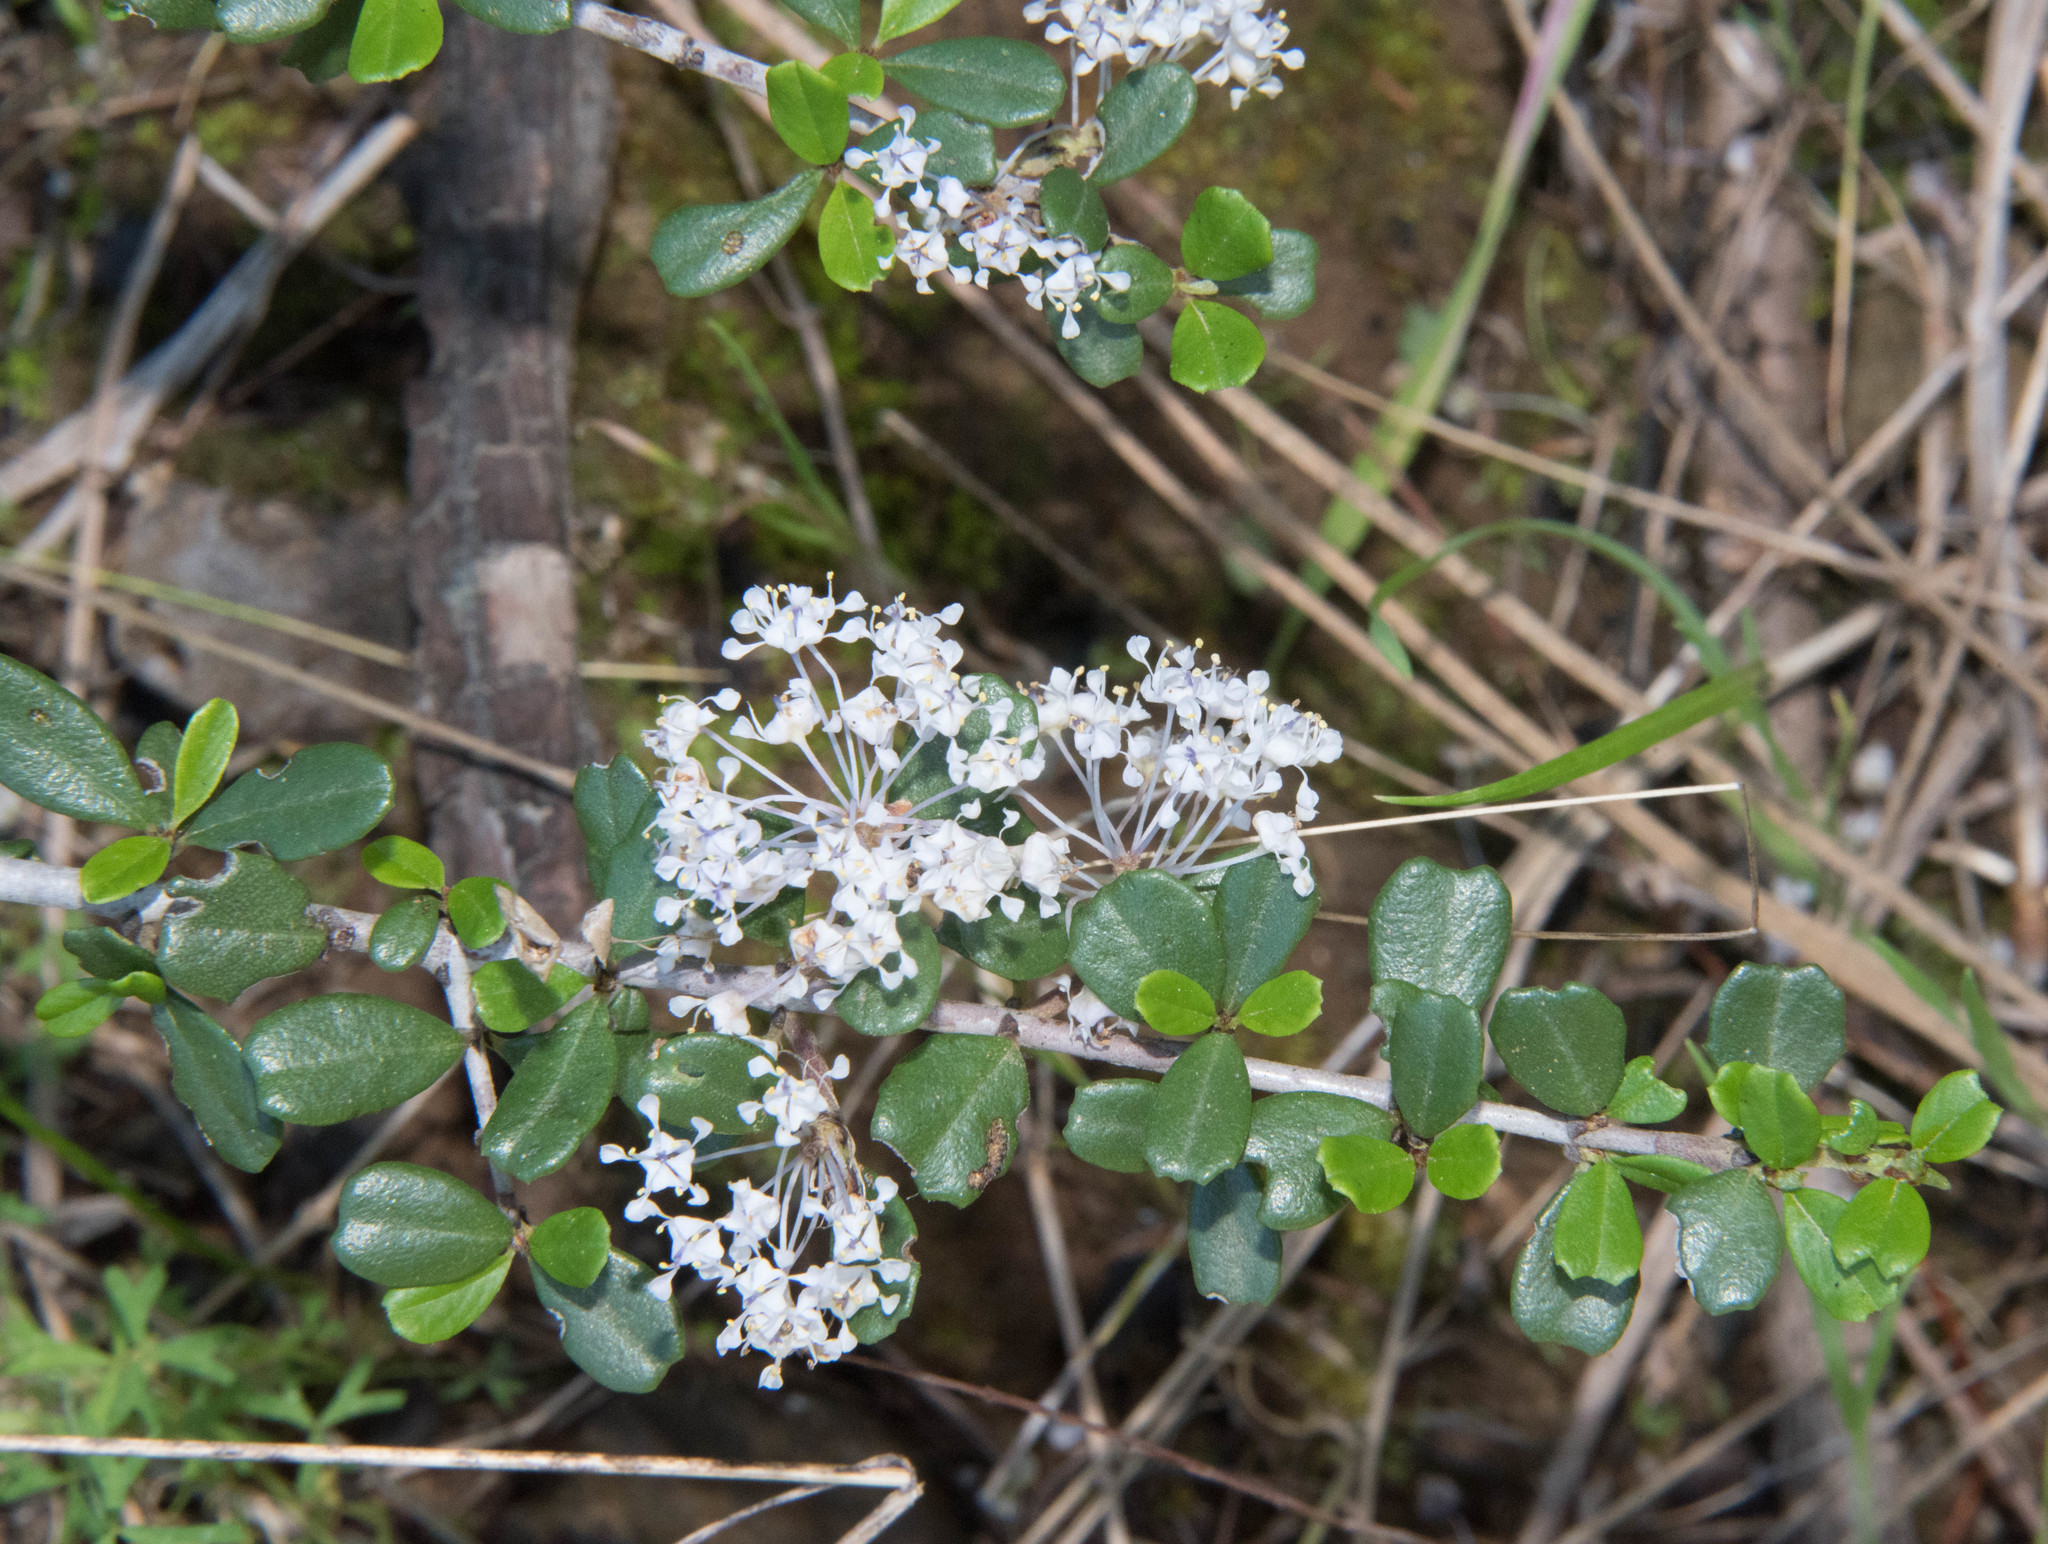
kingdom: Plantae
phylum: Tracheophyta
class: Magnoliopsida
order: Rosales
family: Rhamnaceae
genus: Ceanothus
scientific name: Ceanothus cuneatus
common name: Cuneate ceanothus
